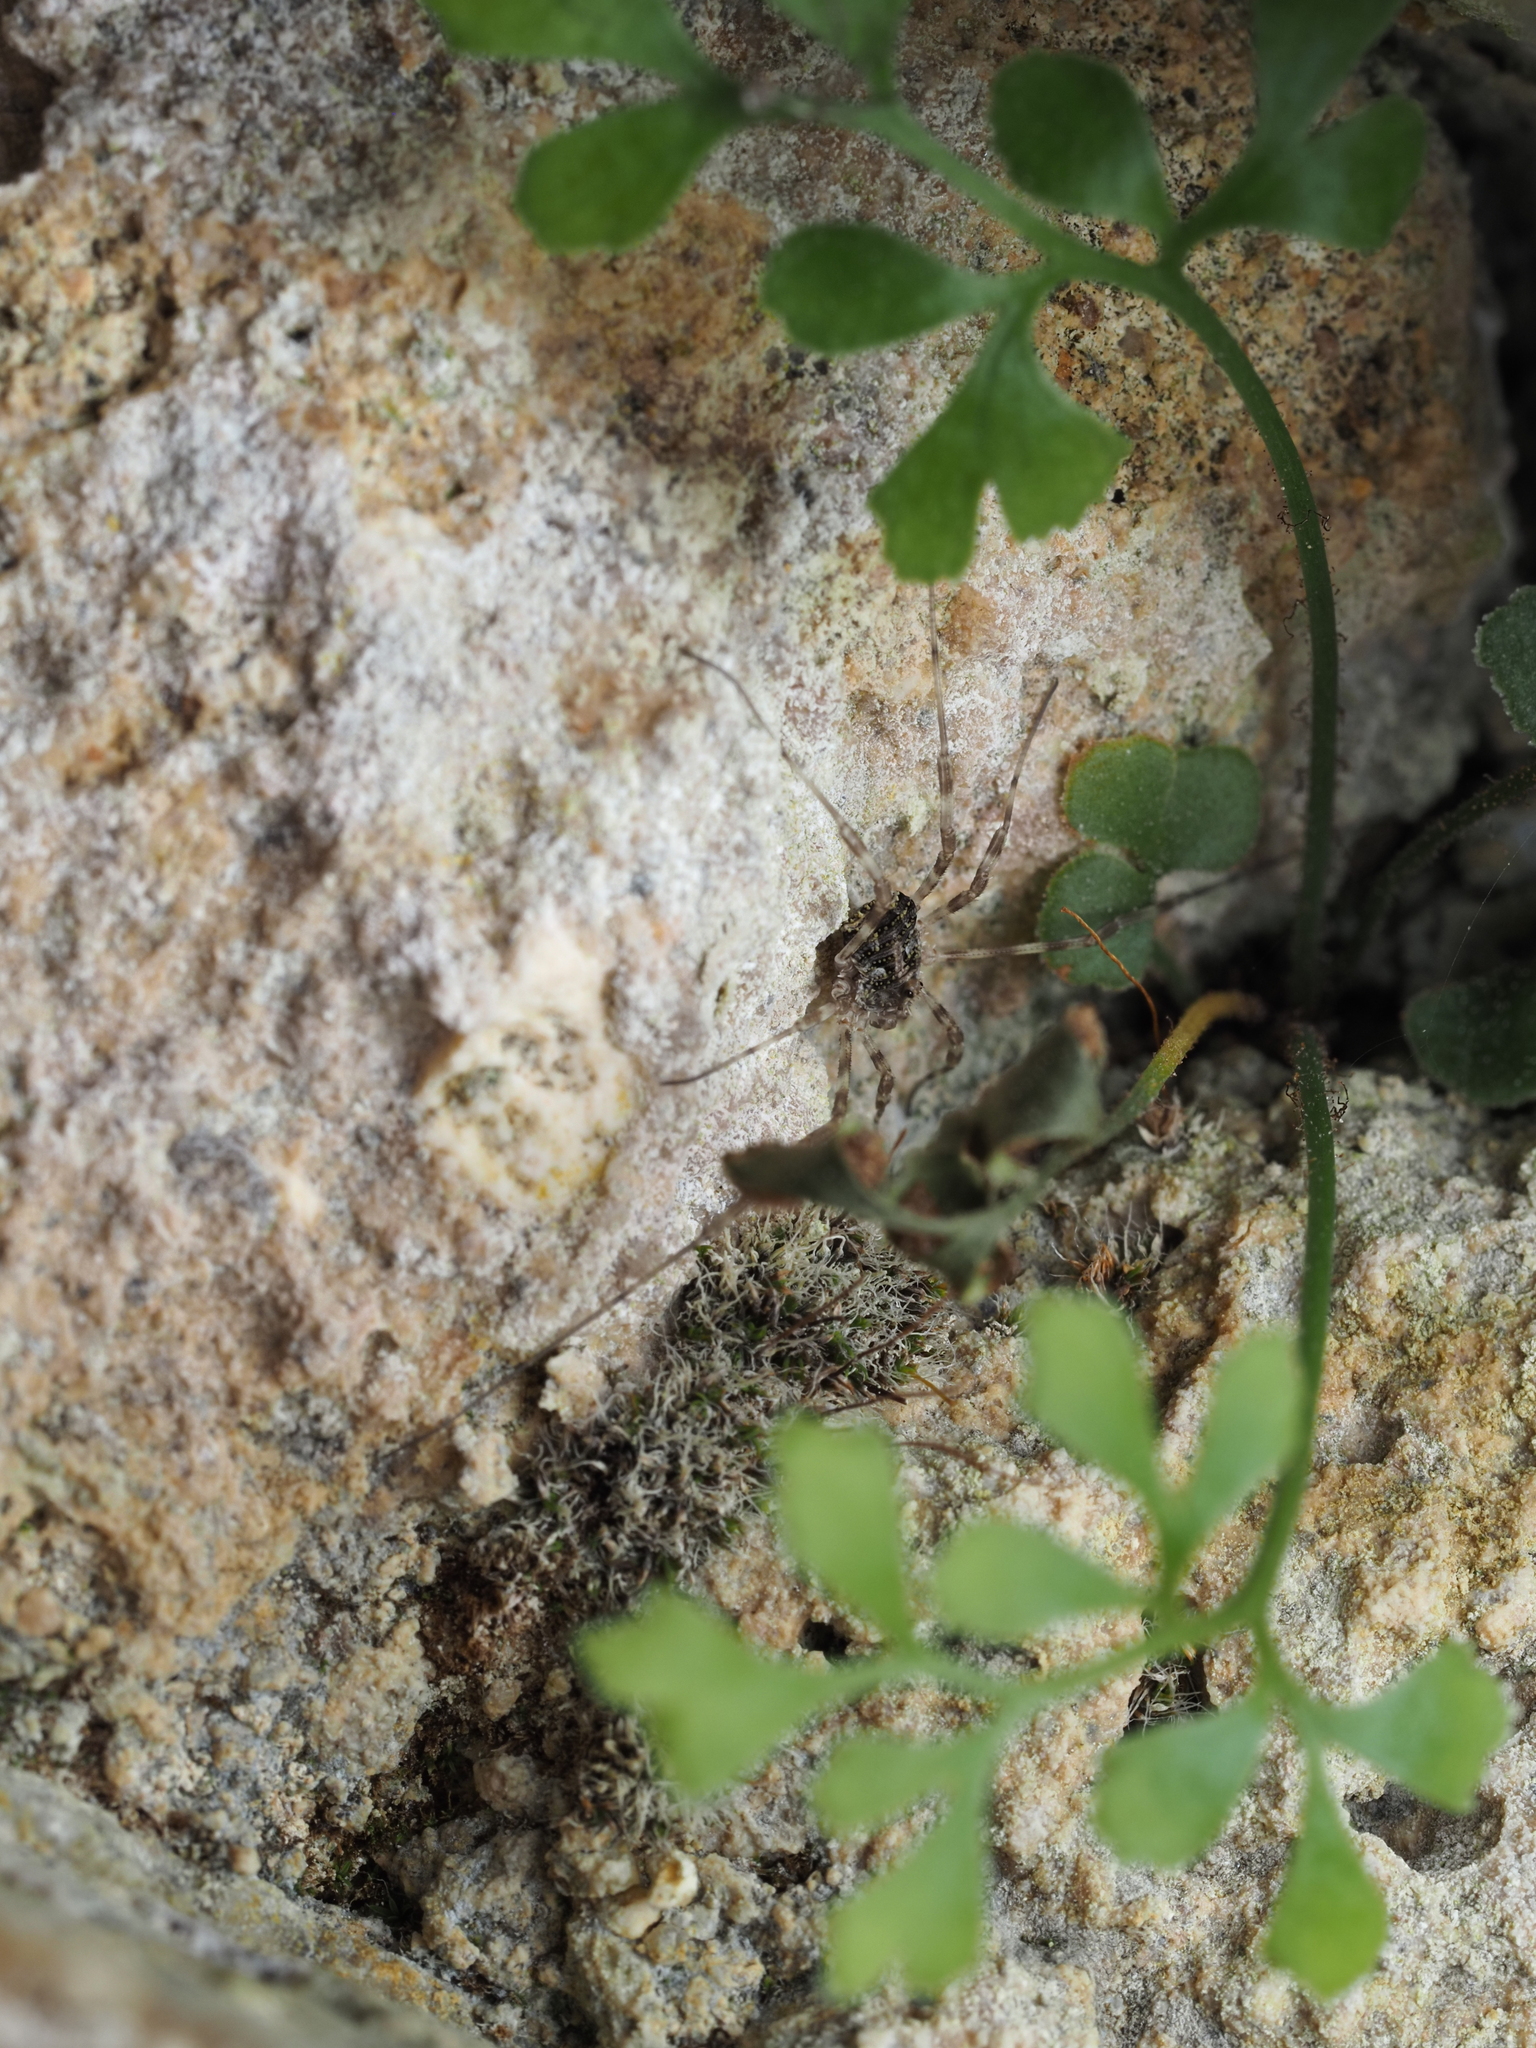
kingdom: Animalia
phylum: Arthropoda
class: Arachnida
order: Opiliones
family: Phalangiidae
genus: Lacinius
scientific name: Lacinius dentiger
